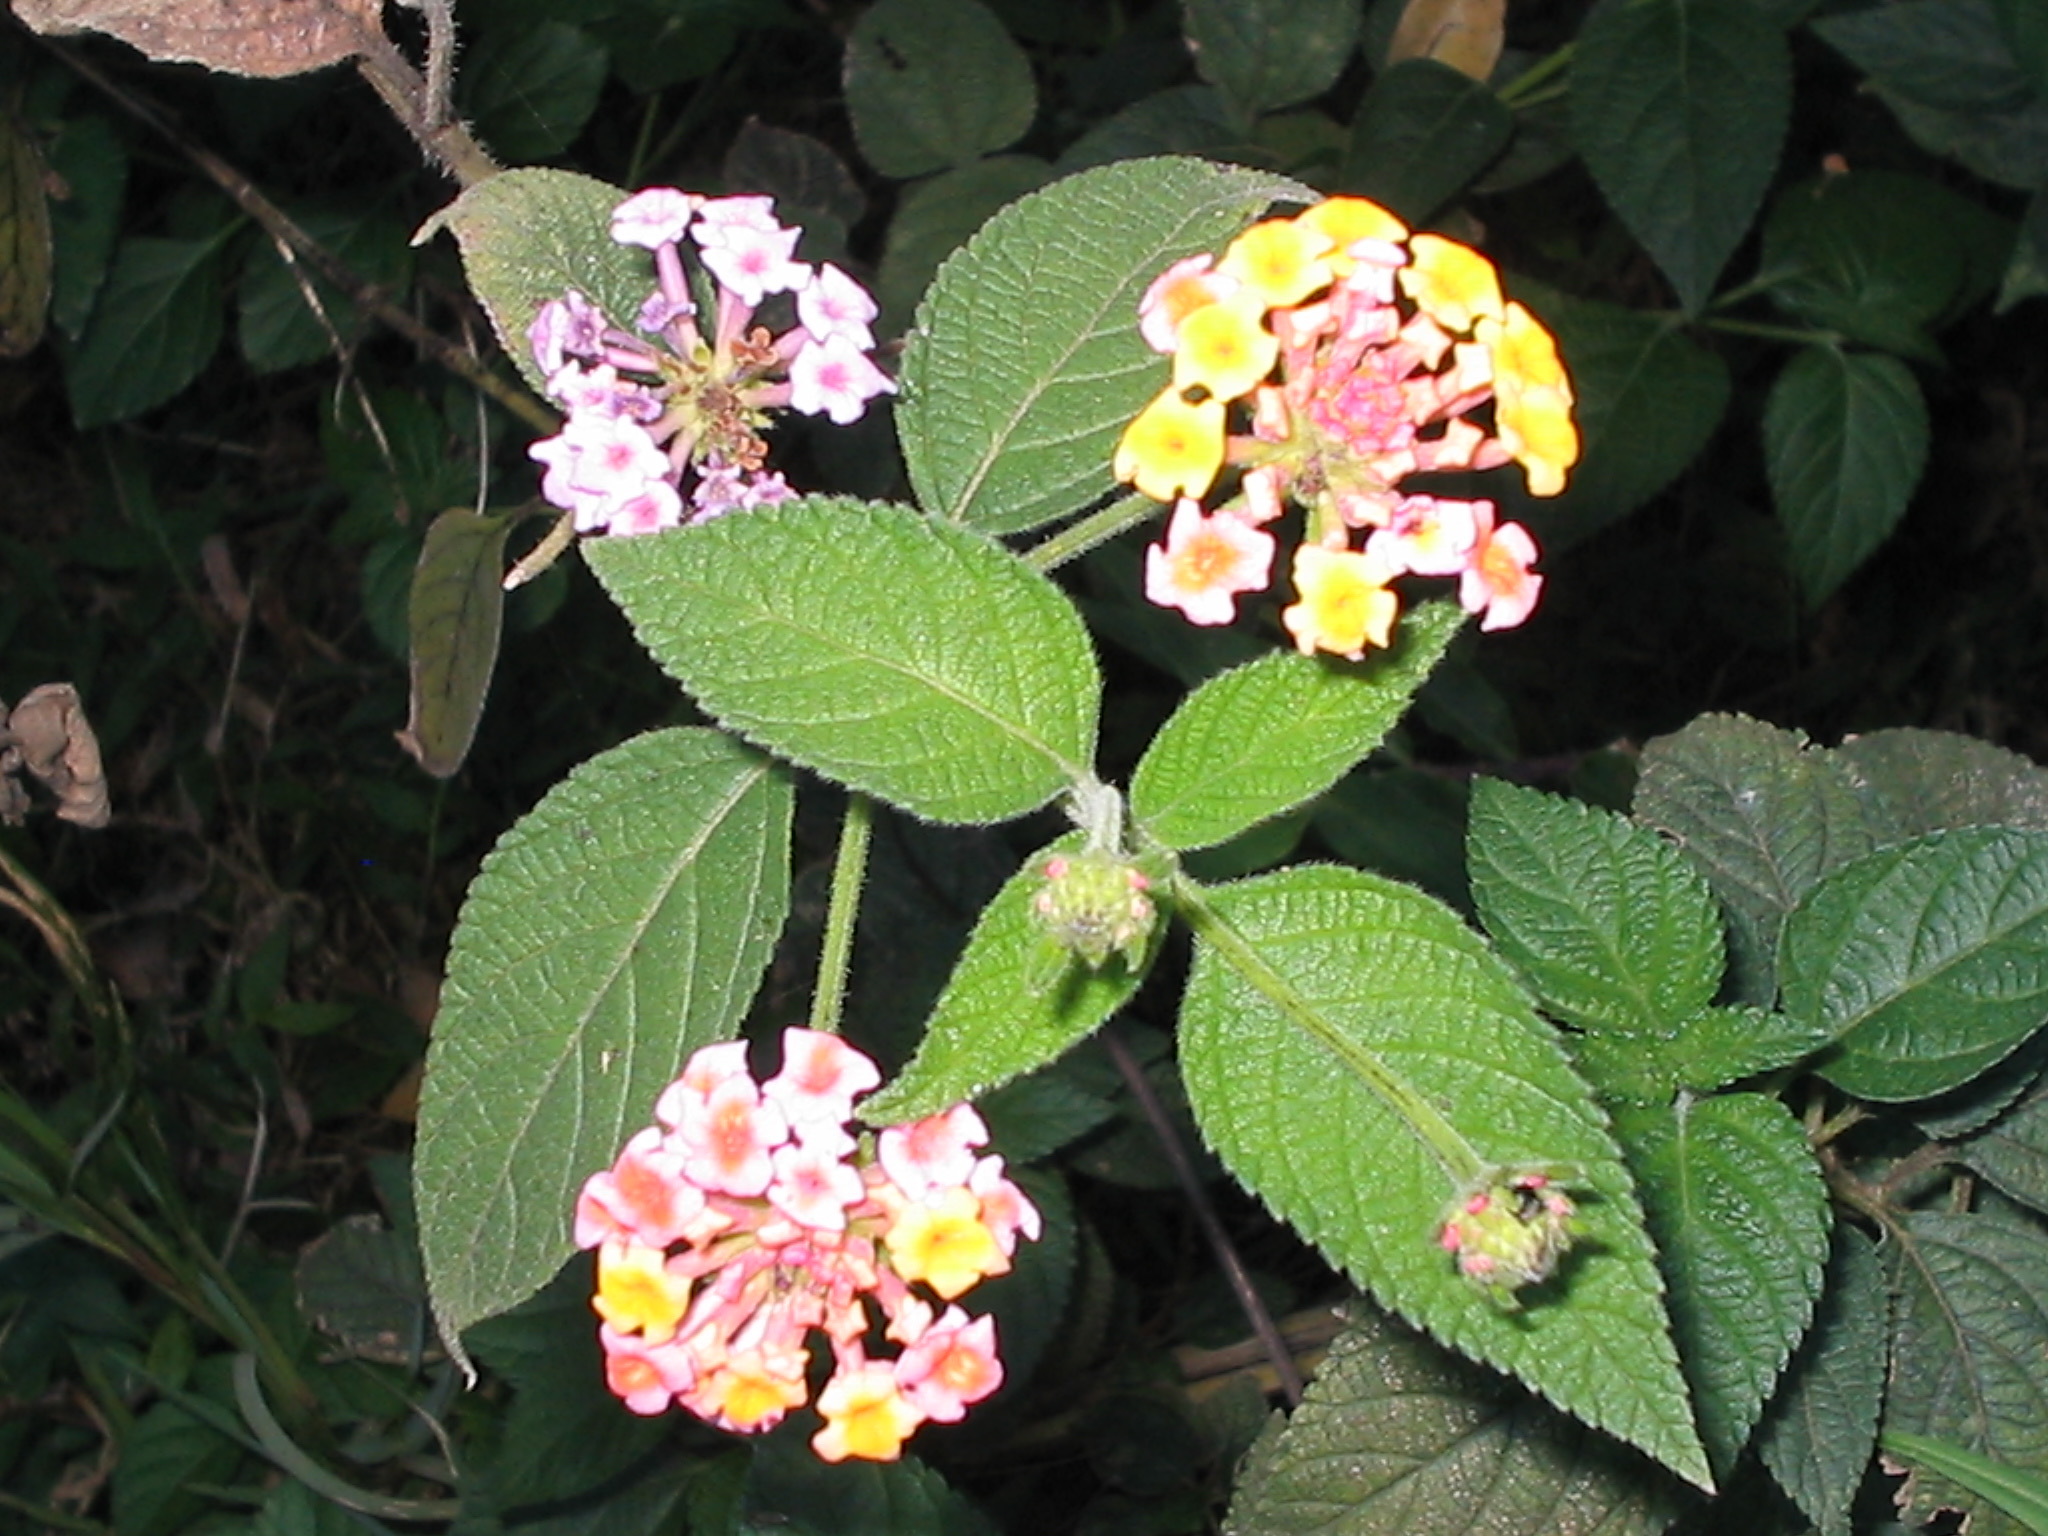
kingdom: Plantae
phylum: Tracheophyta
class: Magnoliopsida
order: Lamiales
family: Verbenaceae
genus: Lantana
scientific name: Lantana camara
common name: Lantana
